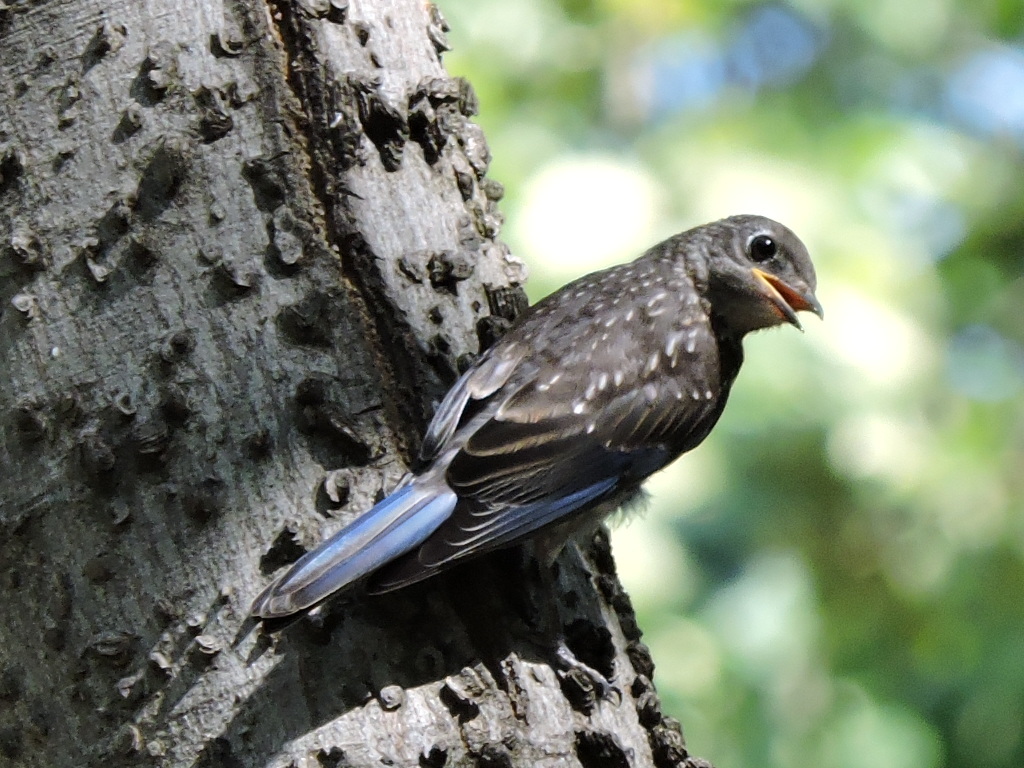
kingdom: Animalia
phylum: Chordata
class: Aves
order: Passeriformes
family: Turdidae
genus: Sialia
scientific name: Sialia sialis
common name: Eastern bluebird
